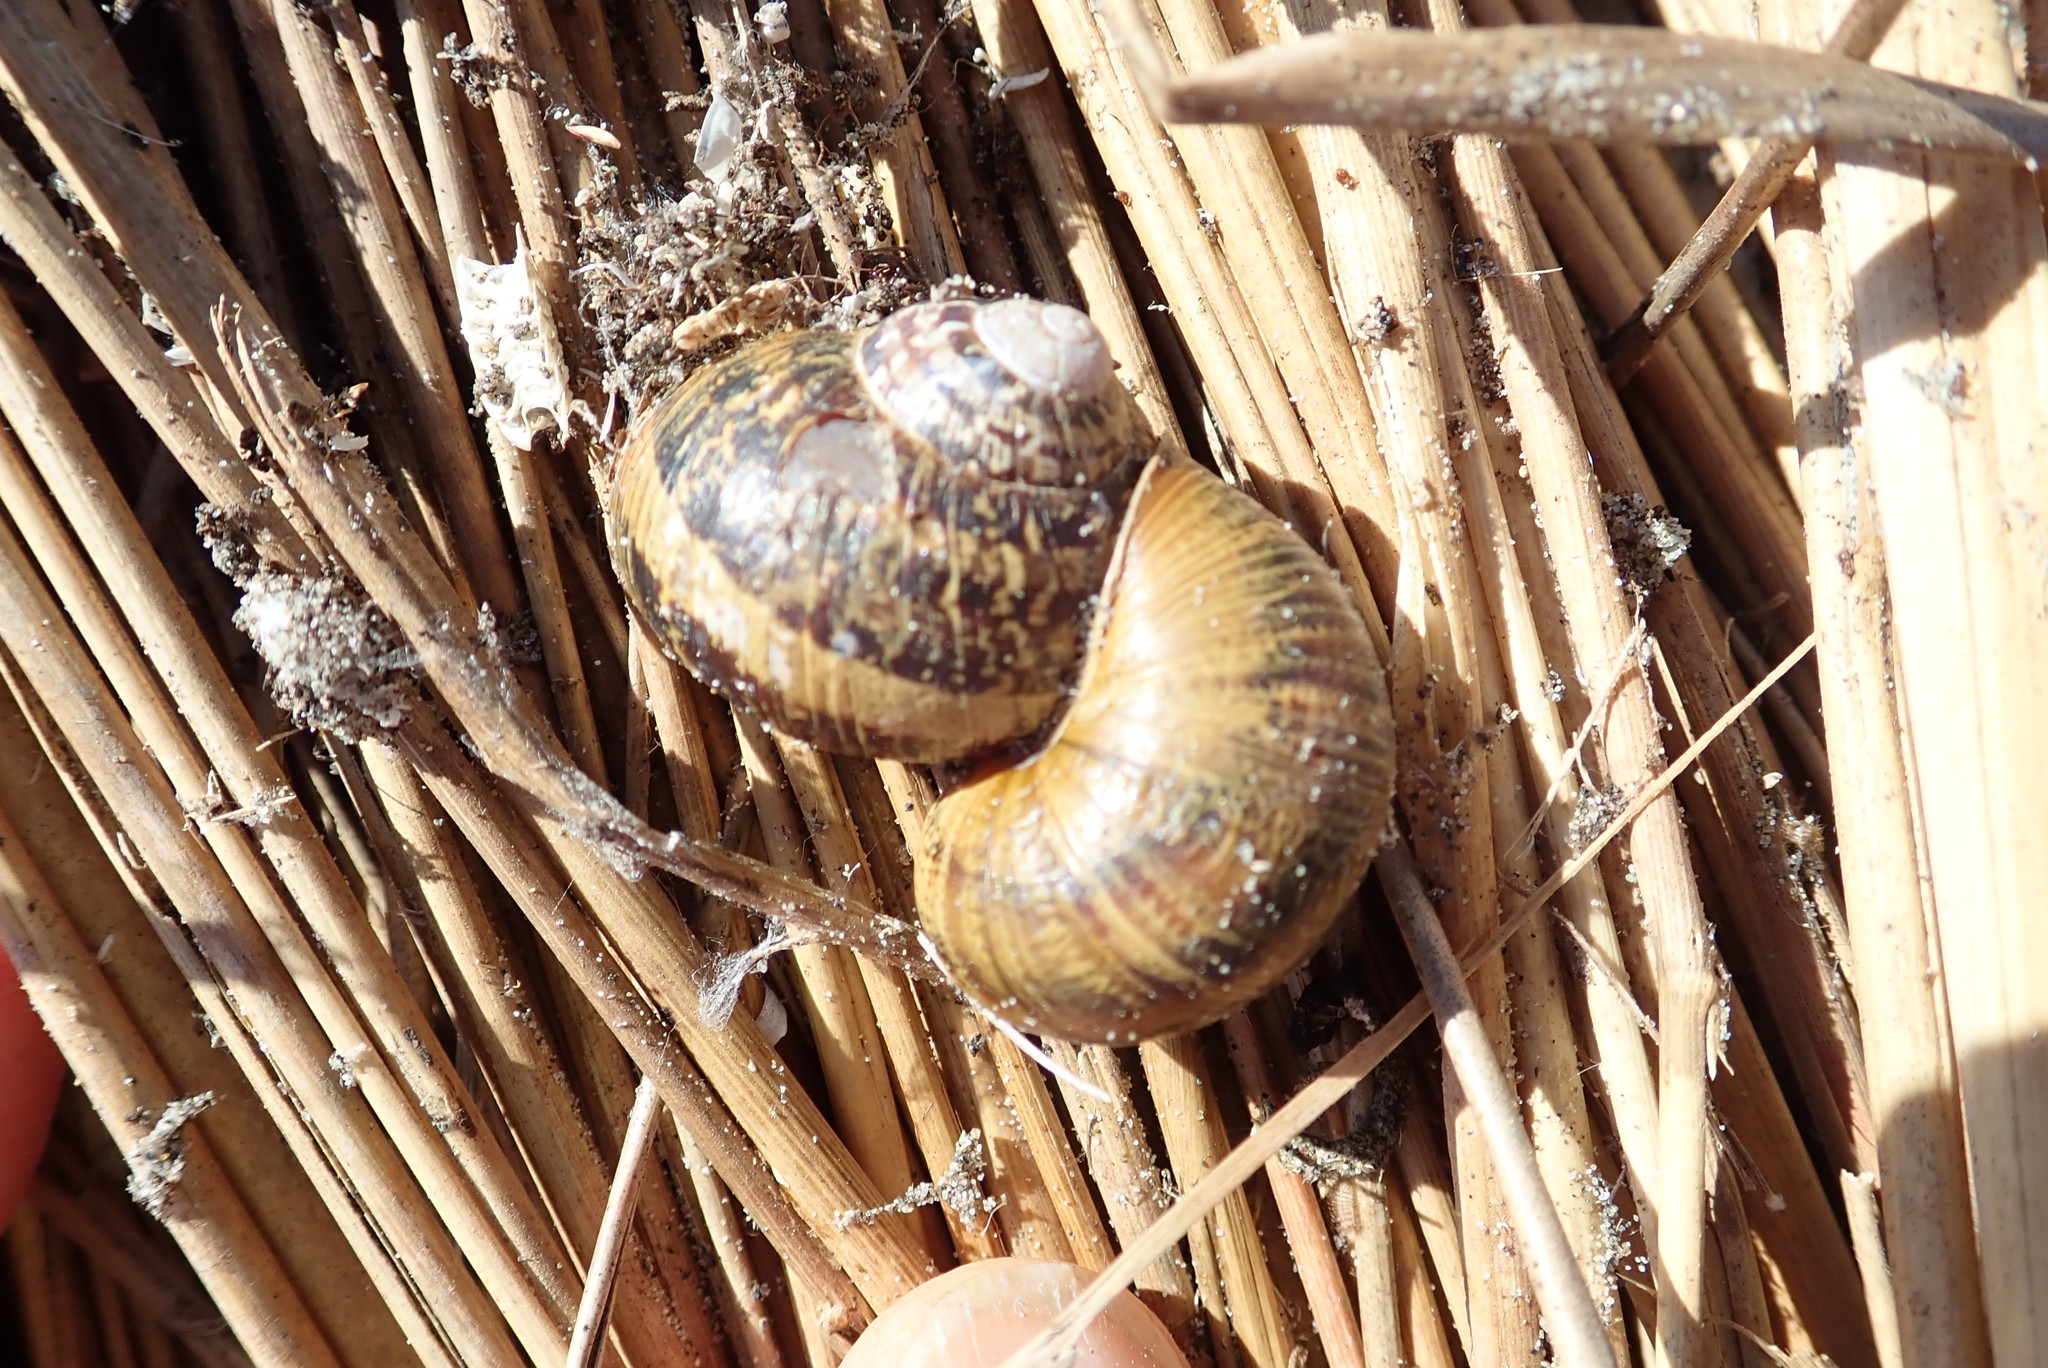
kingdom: Animalia
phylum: Mollusca
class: Gastropoda
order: Stylommatophora
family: Helicidae
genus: Cornu
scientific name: Cornu aspersum
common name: Brown garden snail
